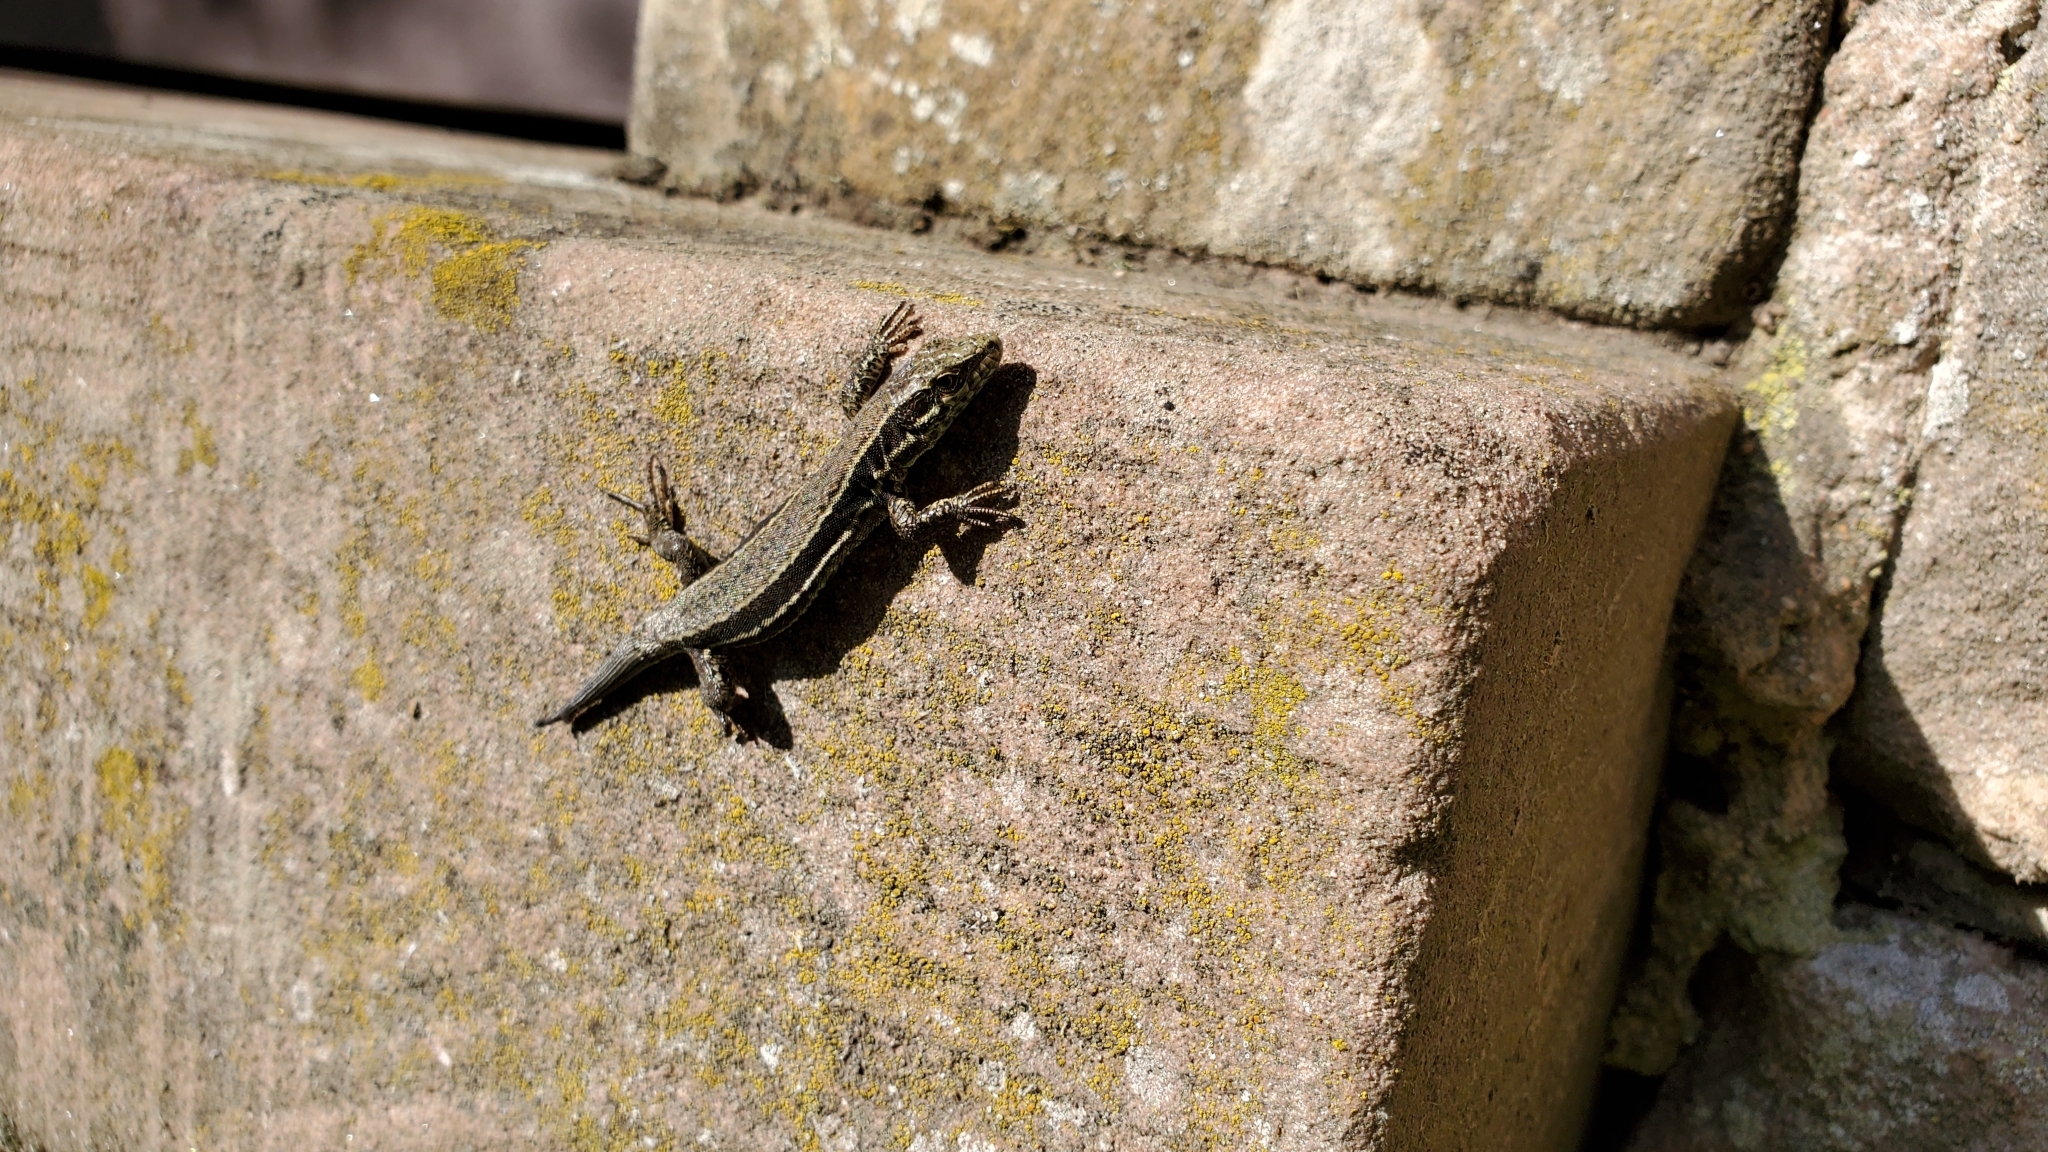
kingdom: Animalia
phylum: Chordata
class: Squamata
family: Lacertidae
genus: Podarcis
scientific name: Podarcis muralis
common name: Common wall lizard
